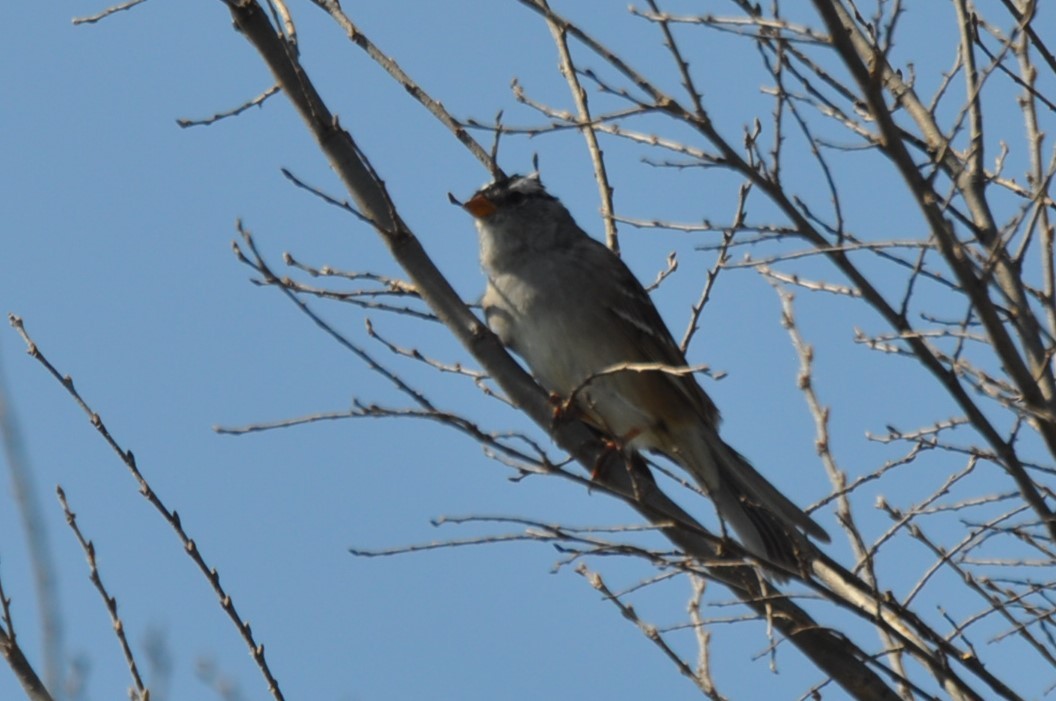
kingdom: Animalia
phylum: Chordata
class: Aves
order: Passeriformes
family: Passerellidae
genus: Zonotrichia
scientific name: Zonotrichia leucophrys
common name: White-crowned sparrow
